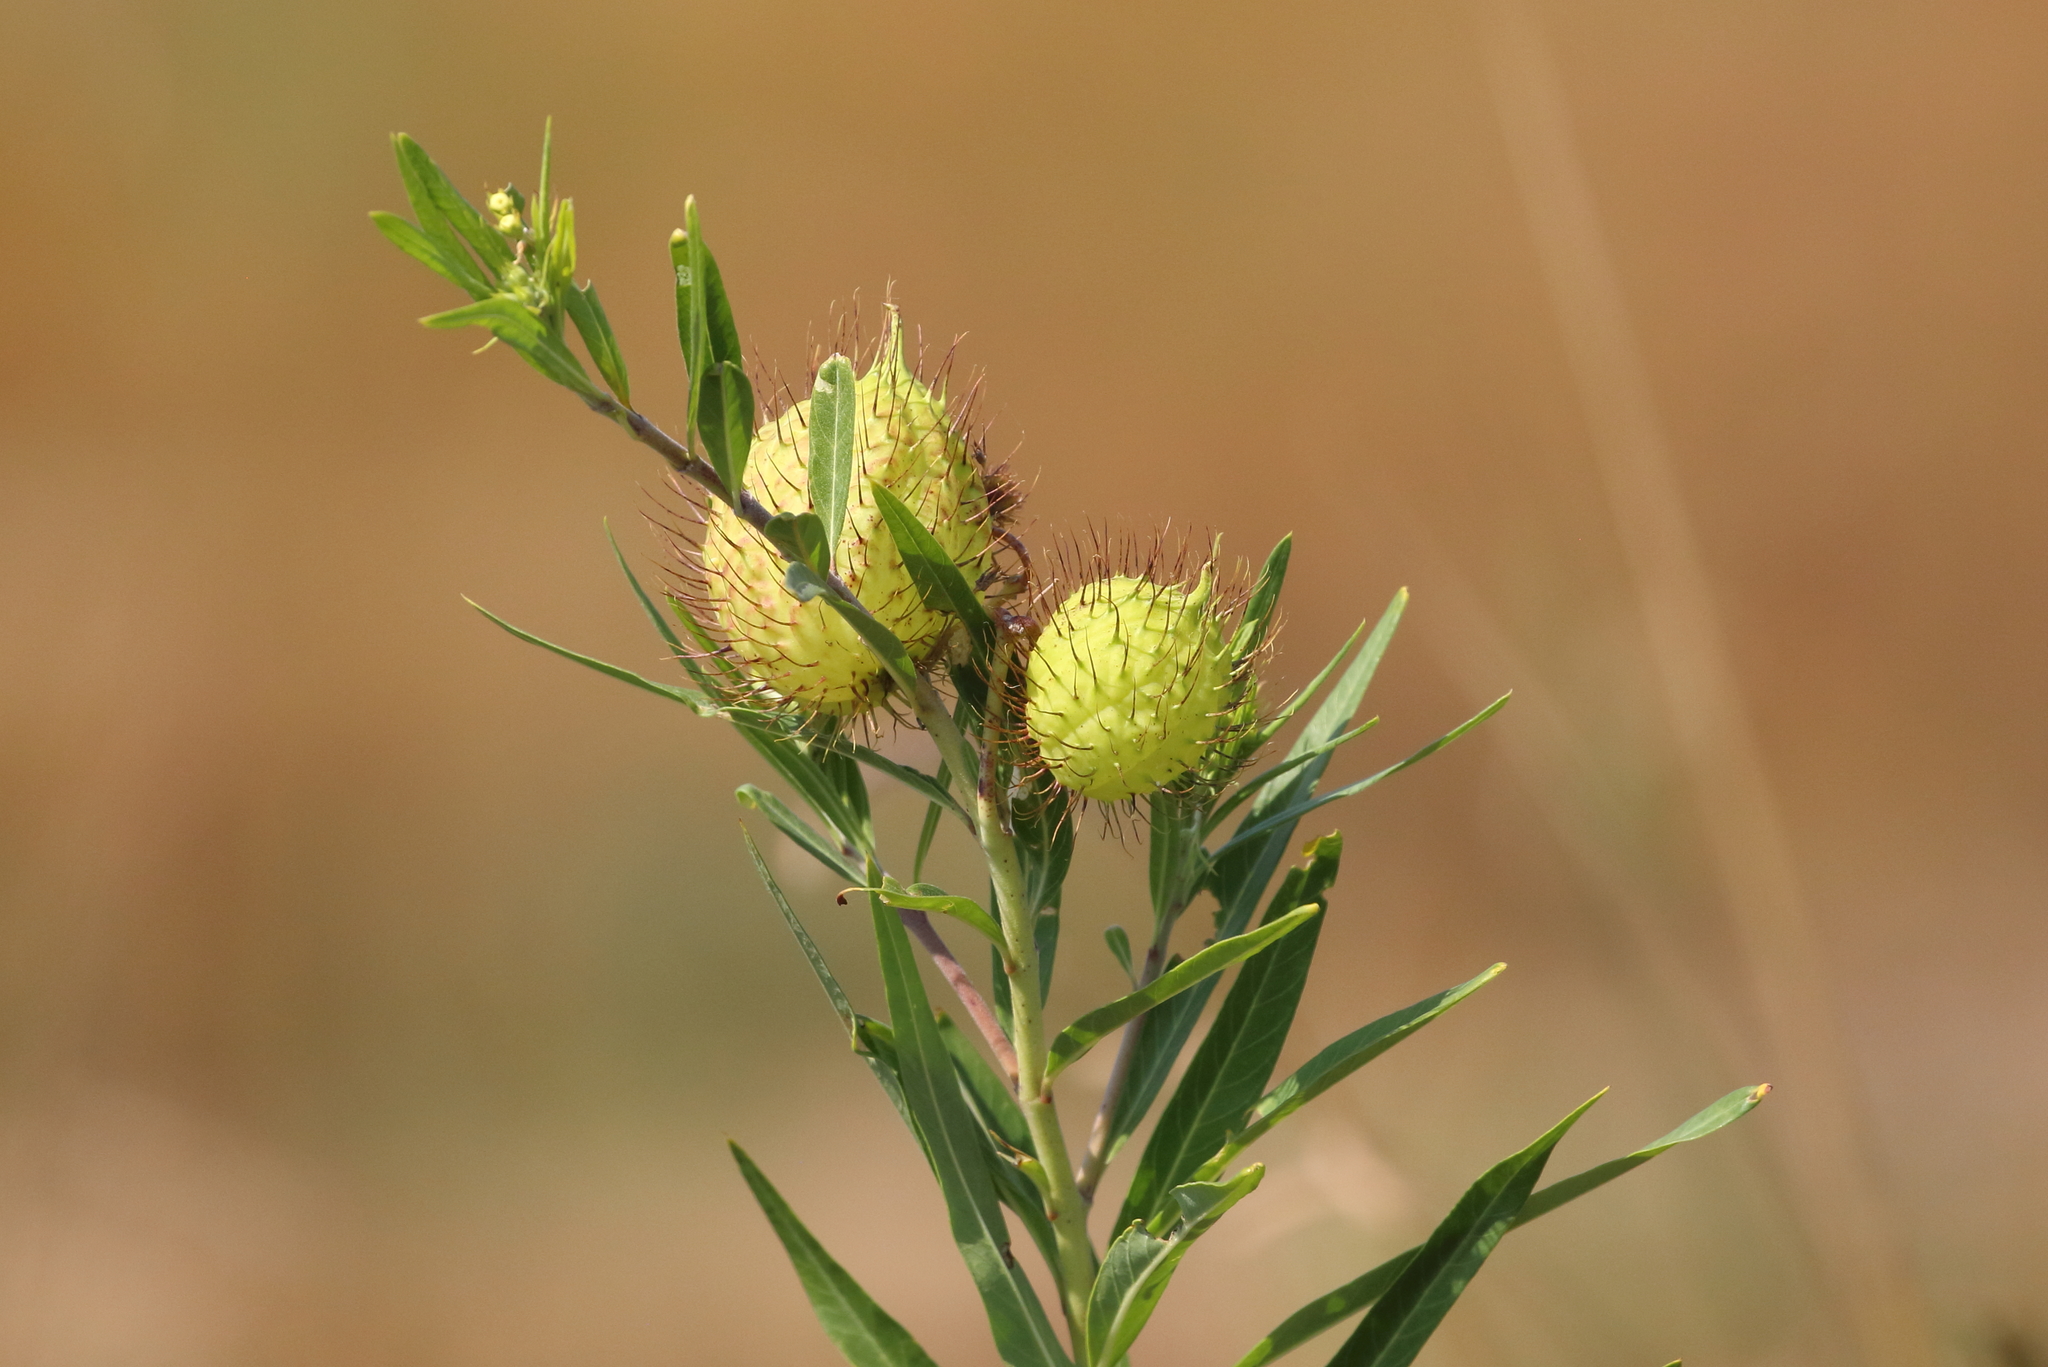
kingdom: Plantae
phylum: Tracheophyta
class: Magnoliopsida
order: Gentianales
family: Apocynaceae
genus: Gomphocarpus
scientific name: Gomphocarpus physocarpus
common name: Balloon cotton bush
